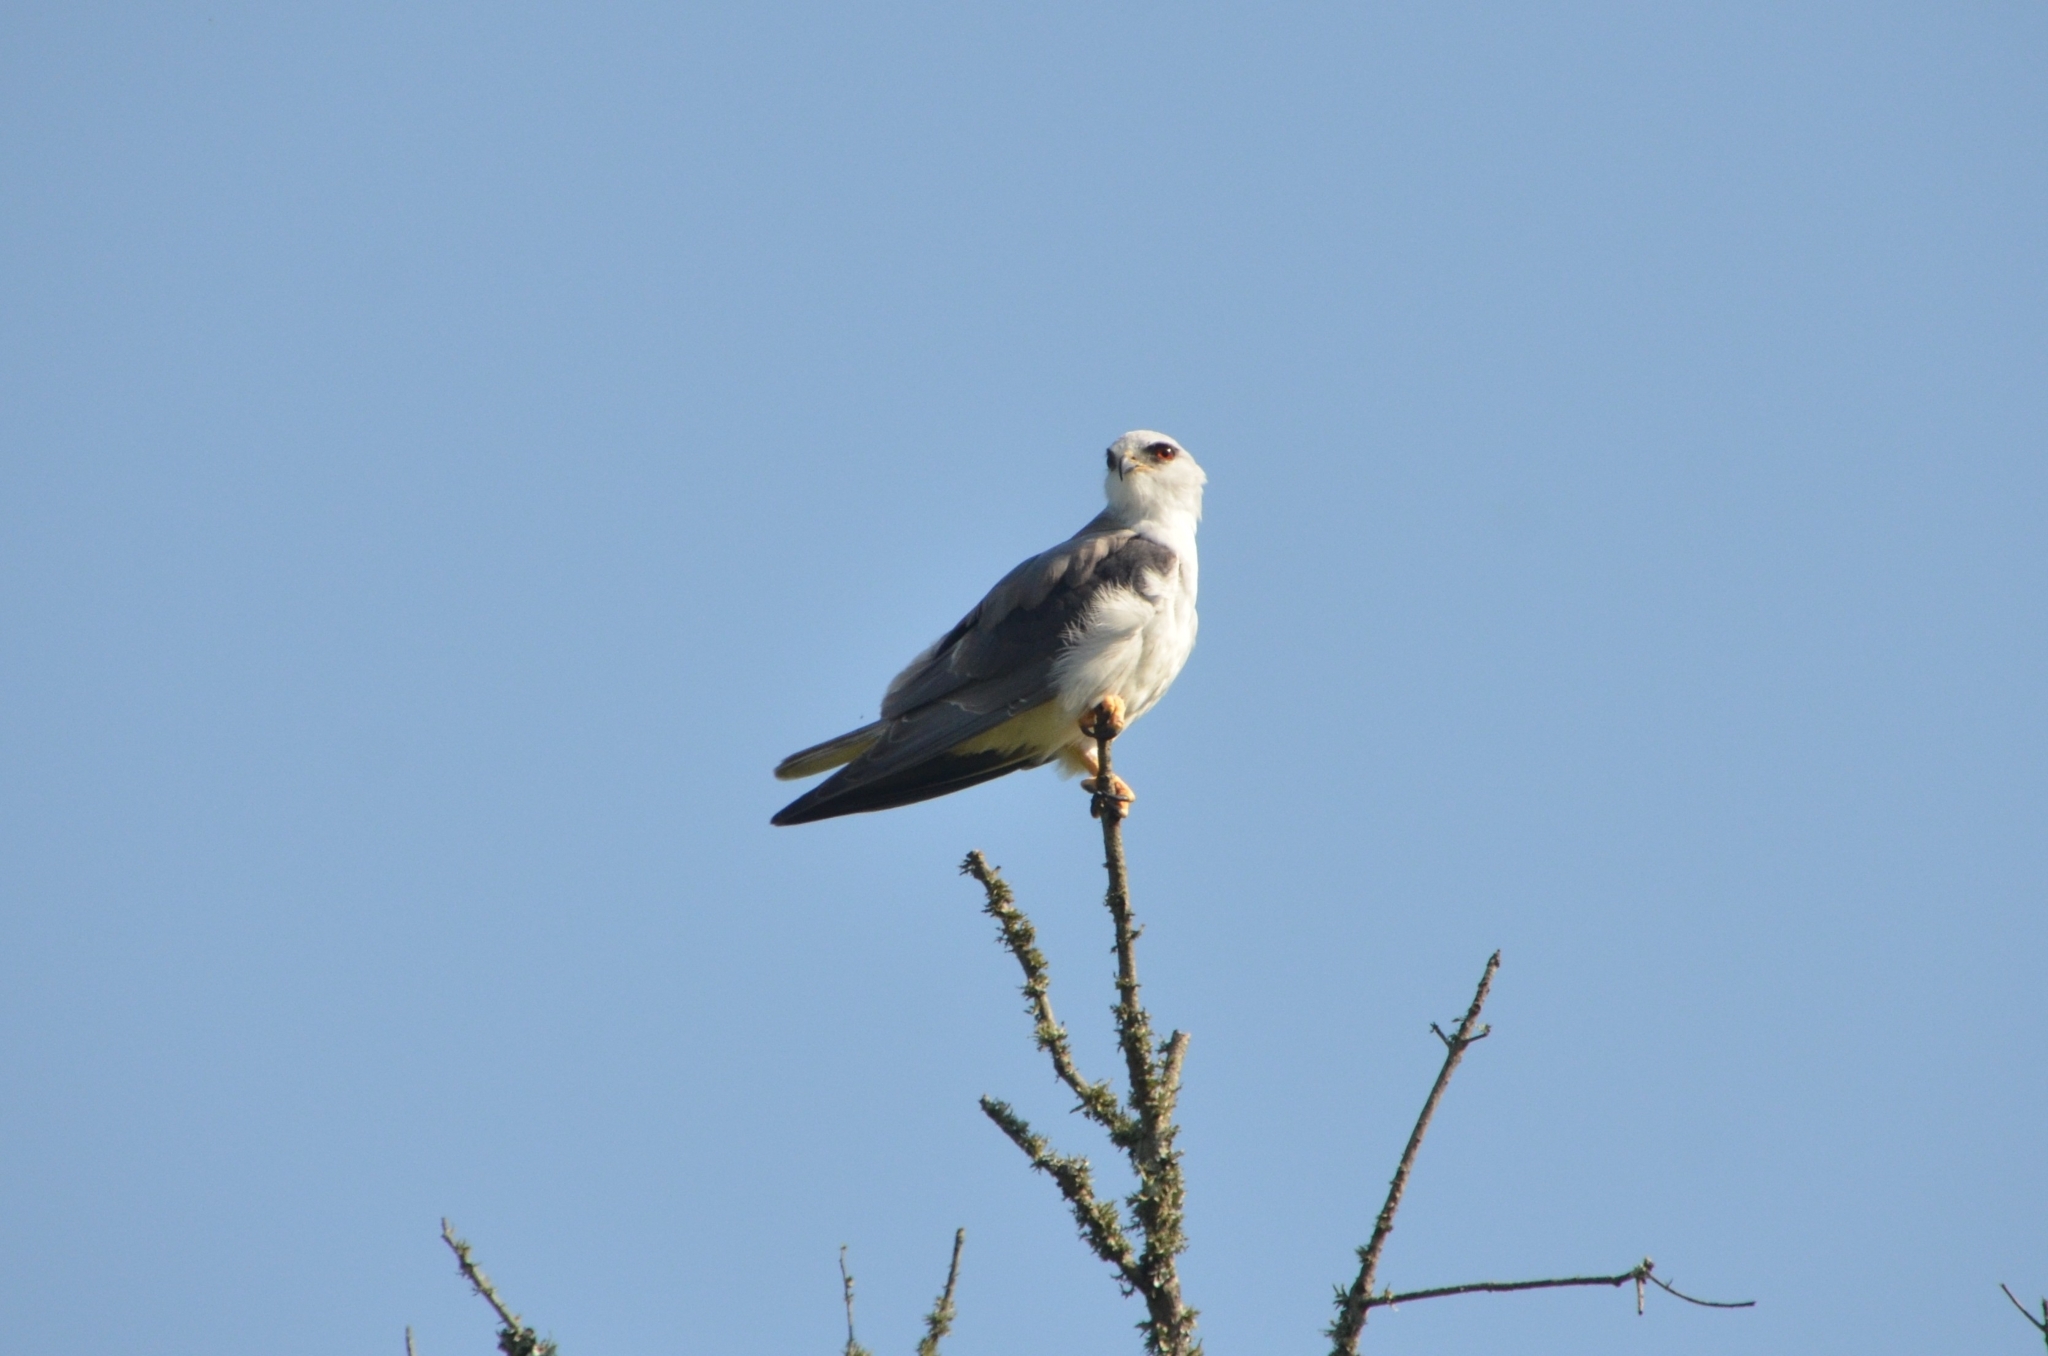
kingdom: Animalia
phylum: Chordata
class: Aves
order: Accipitriformes
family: Accipitridae
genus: Elanus
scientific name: Elanus caeruleus
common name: Black-winged kite
